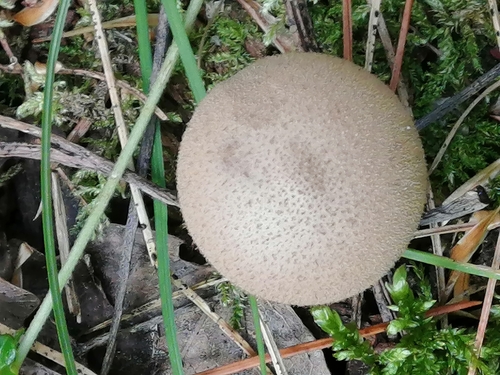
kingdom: Fungi
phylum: Basidiomycota
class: Agaricomycetes
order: Agaricales
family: Lycoperdaceae
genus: Lycoperdon
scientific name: Lycoperdon perlatum
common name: Common puffball
